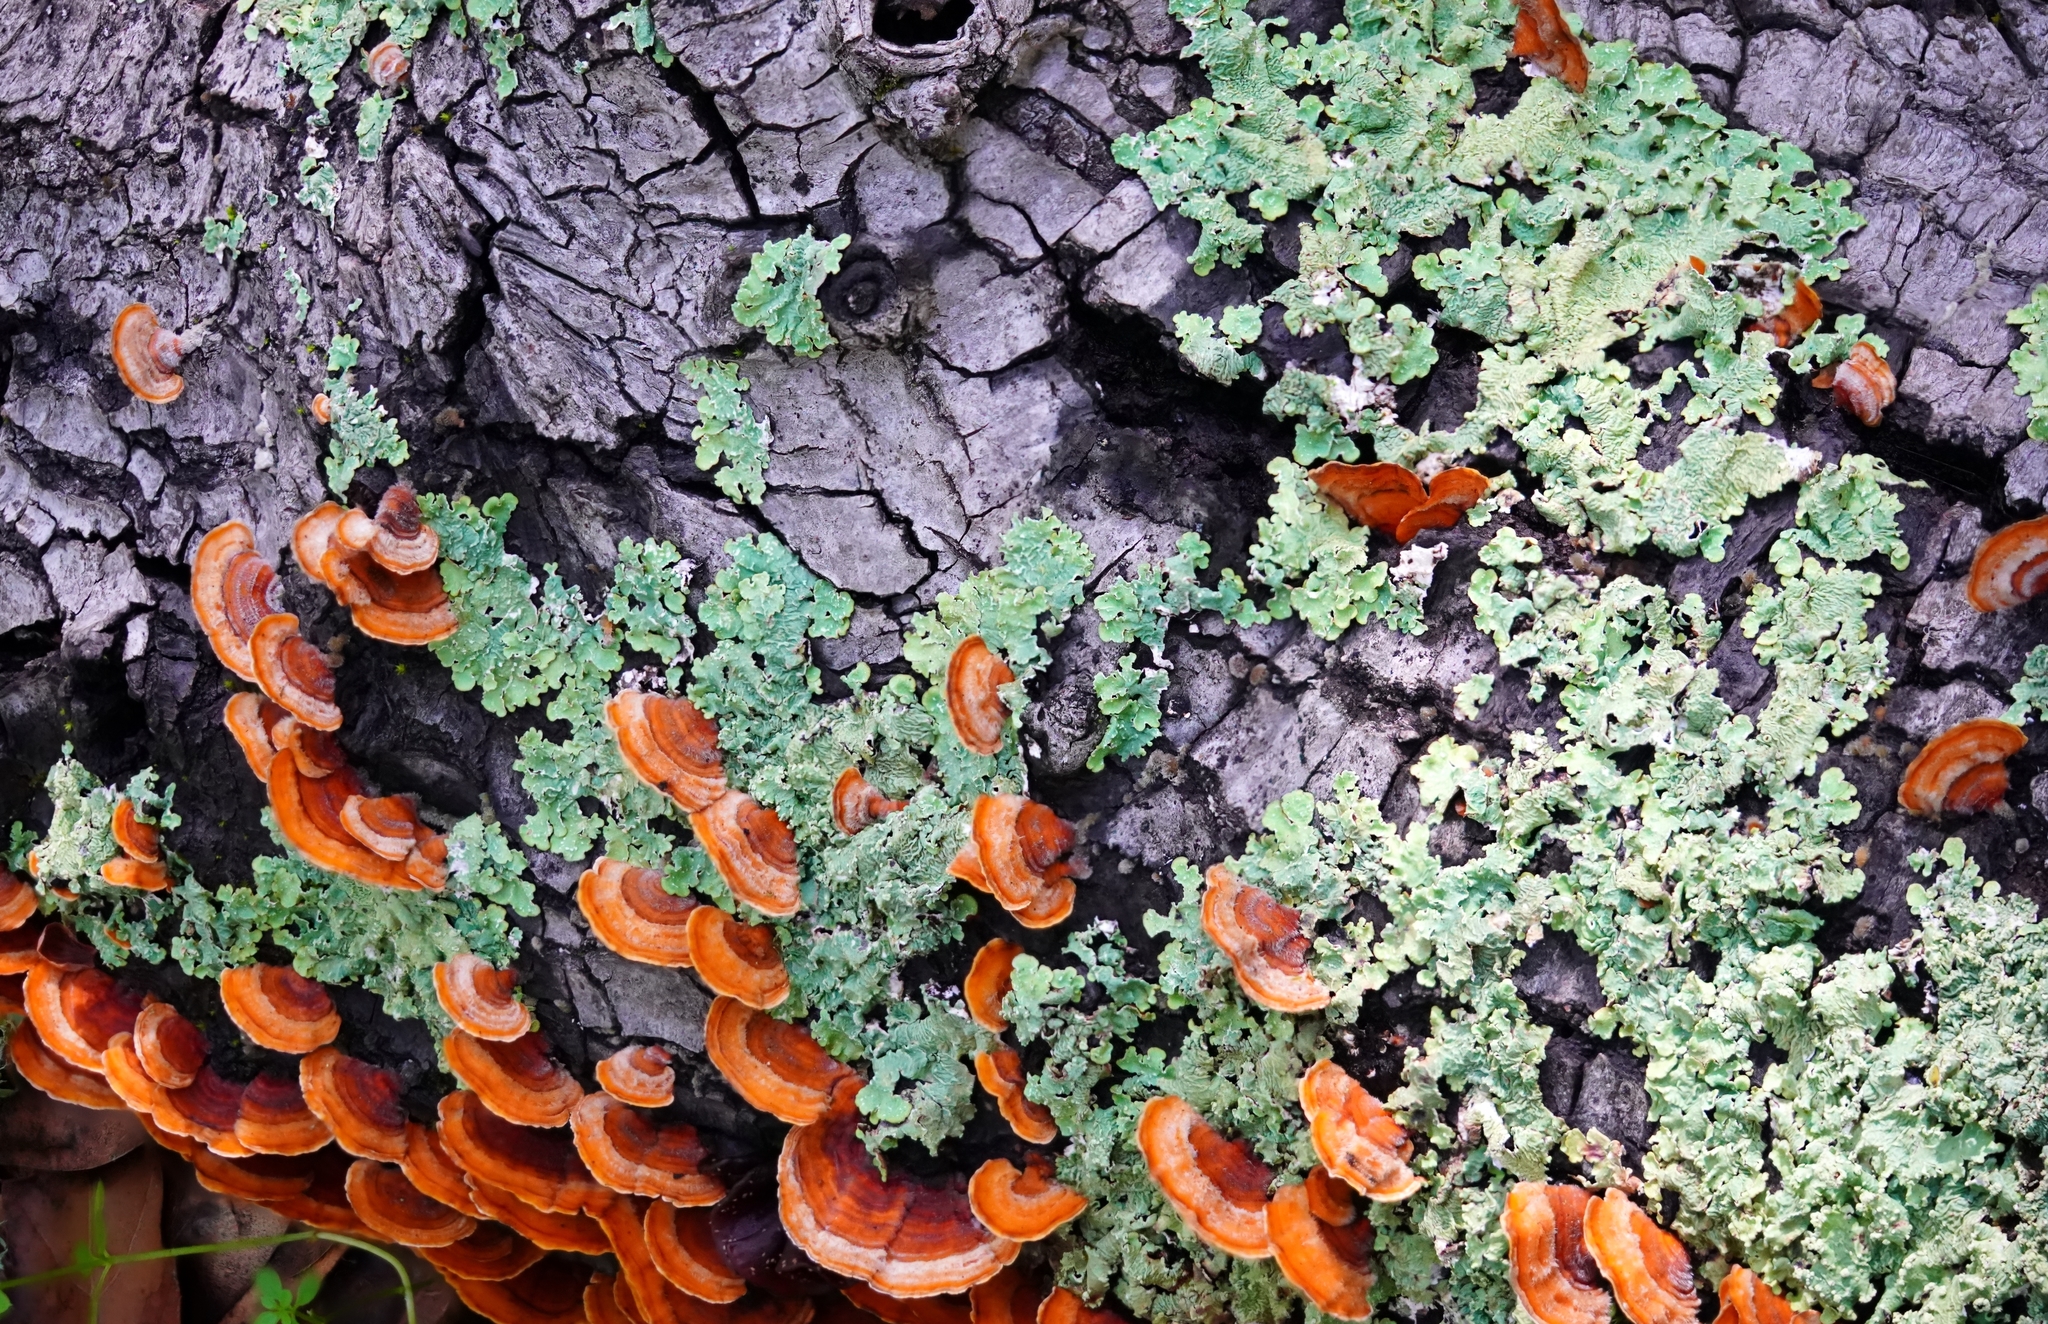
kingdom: Fungi
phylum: Basidiomycota
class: Agaricomycetes
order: Russulales
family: Stereaceae
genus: Stereum
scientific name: Stereum hirsutum
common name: Hairy curtain crust
